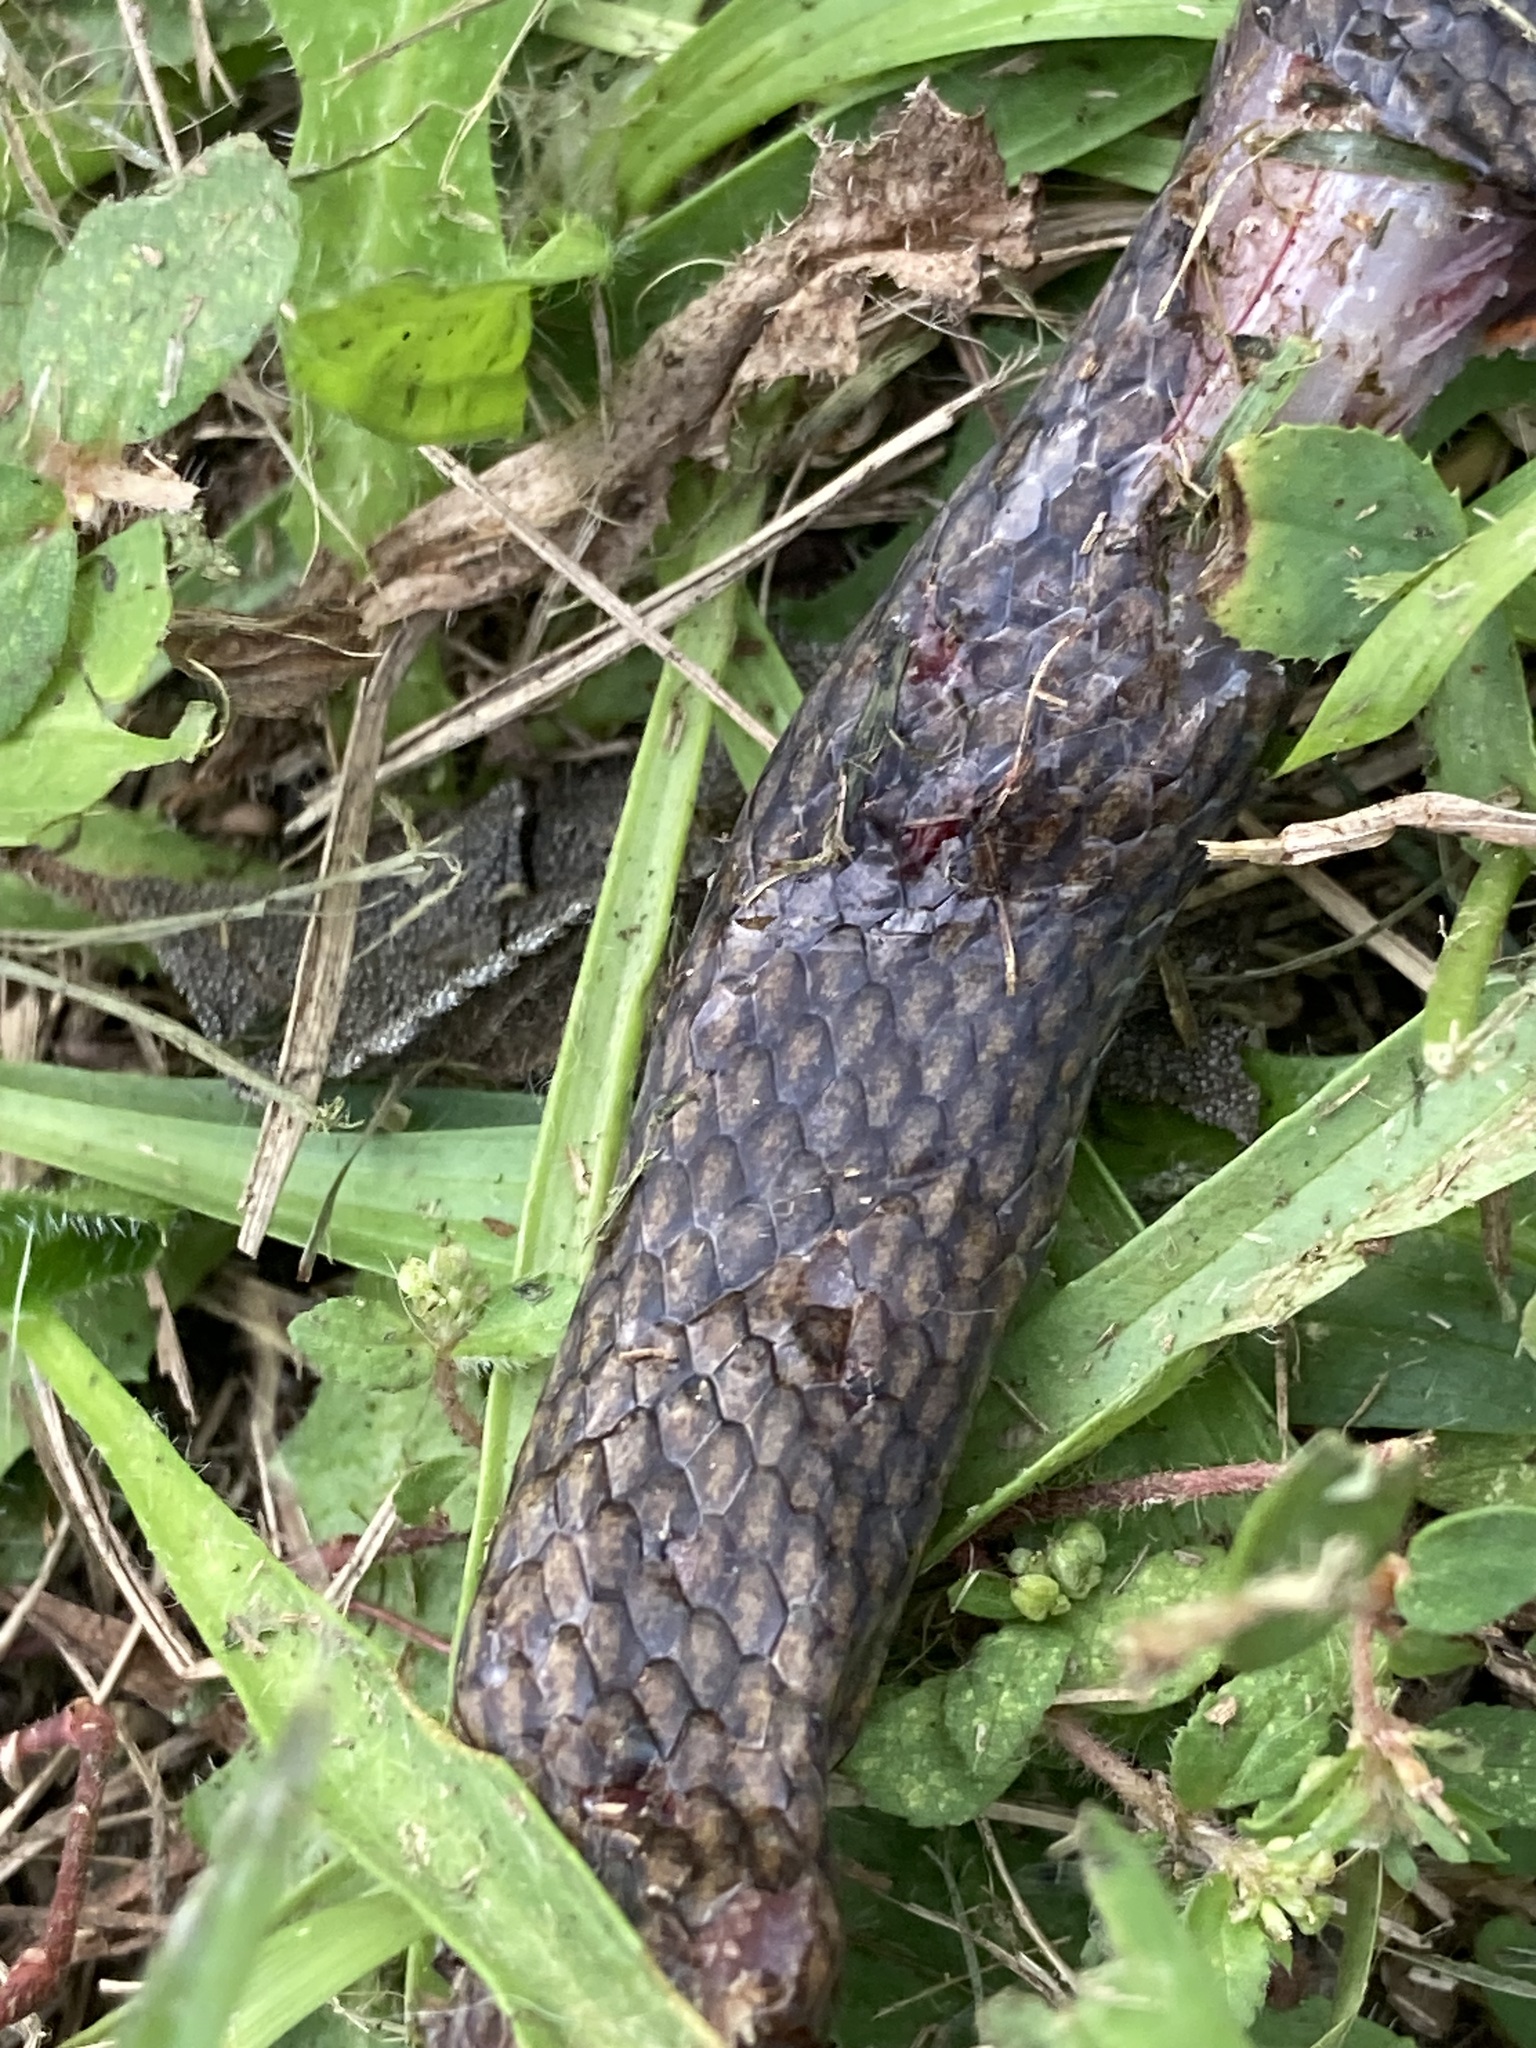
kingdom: Animalia
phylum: Chordata
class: Squamata
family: Elapidae
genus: Cacophis
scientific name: Cacophis squamulosus
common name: Golden crowned snake
